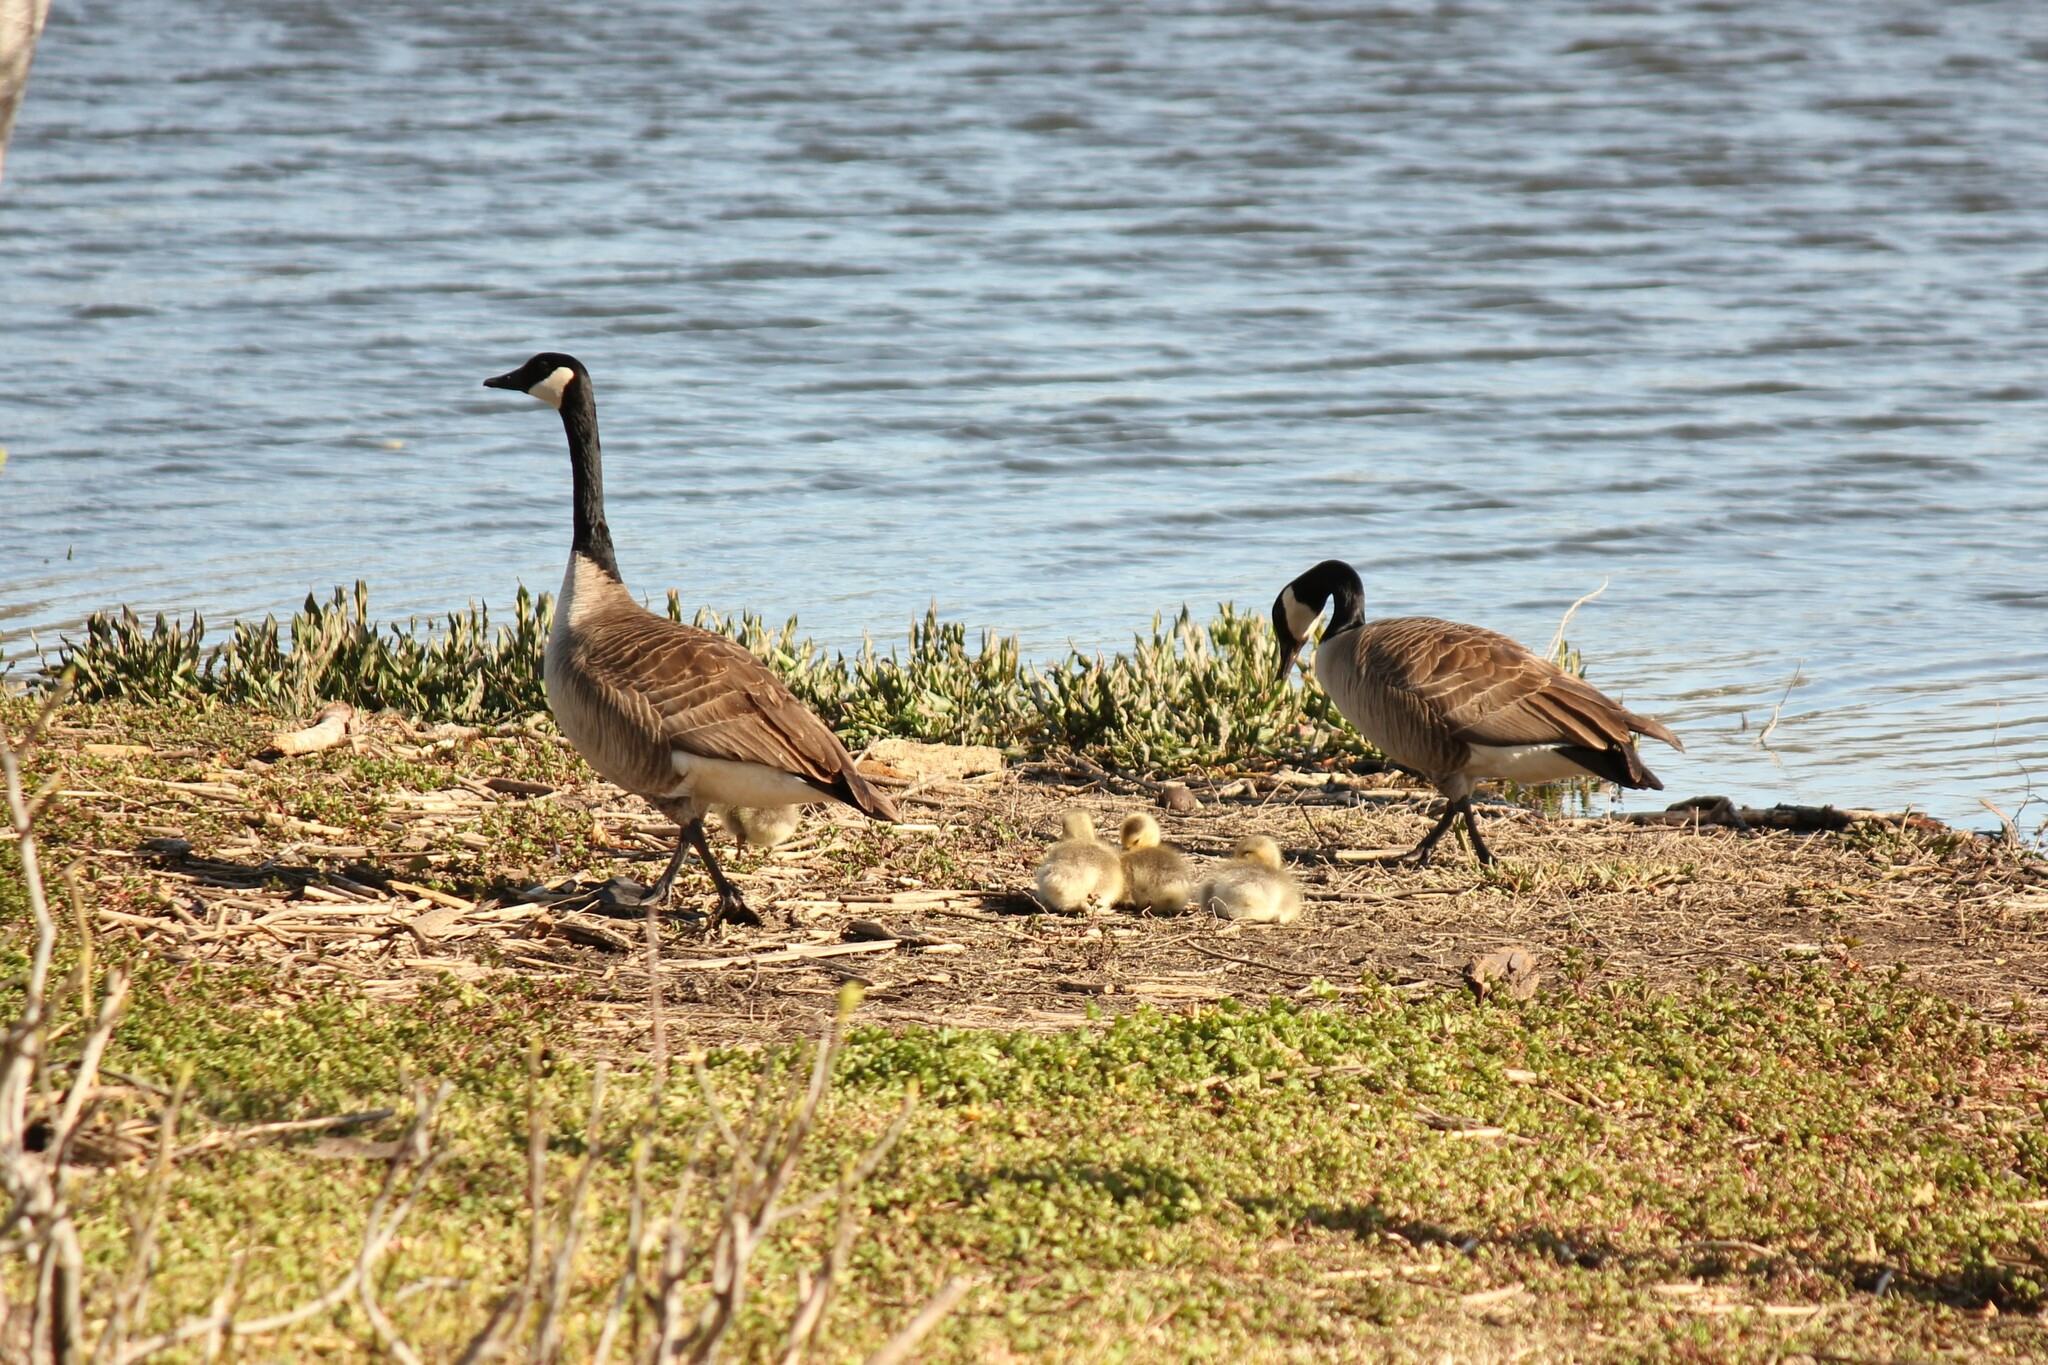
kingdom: Animalia
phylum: Chordata
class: Aves
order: Anseriformes
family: Anatidae
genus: Branta
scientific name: Branta canadensis
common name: Canada goose
